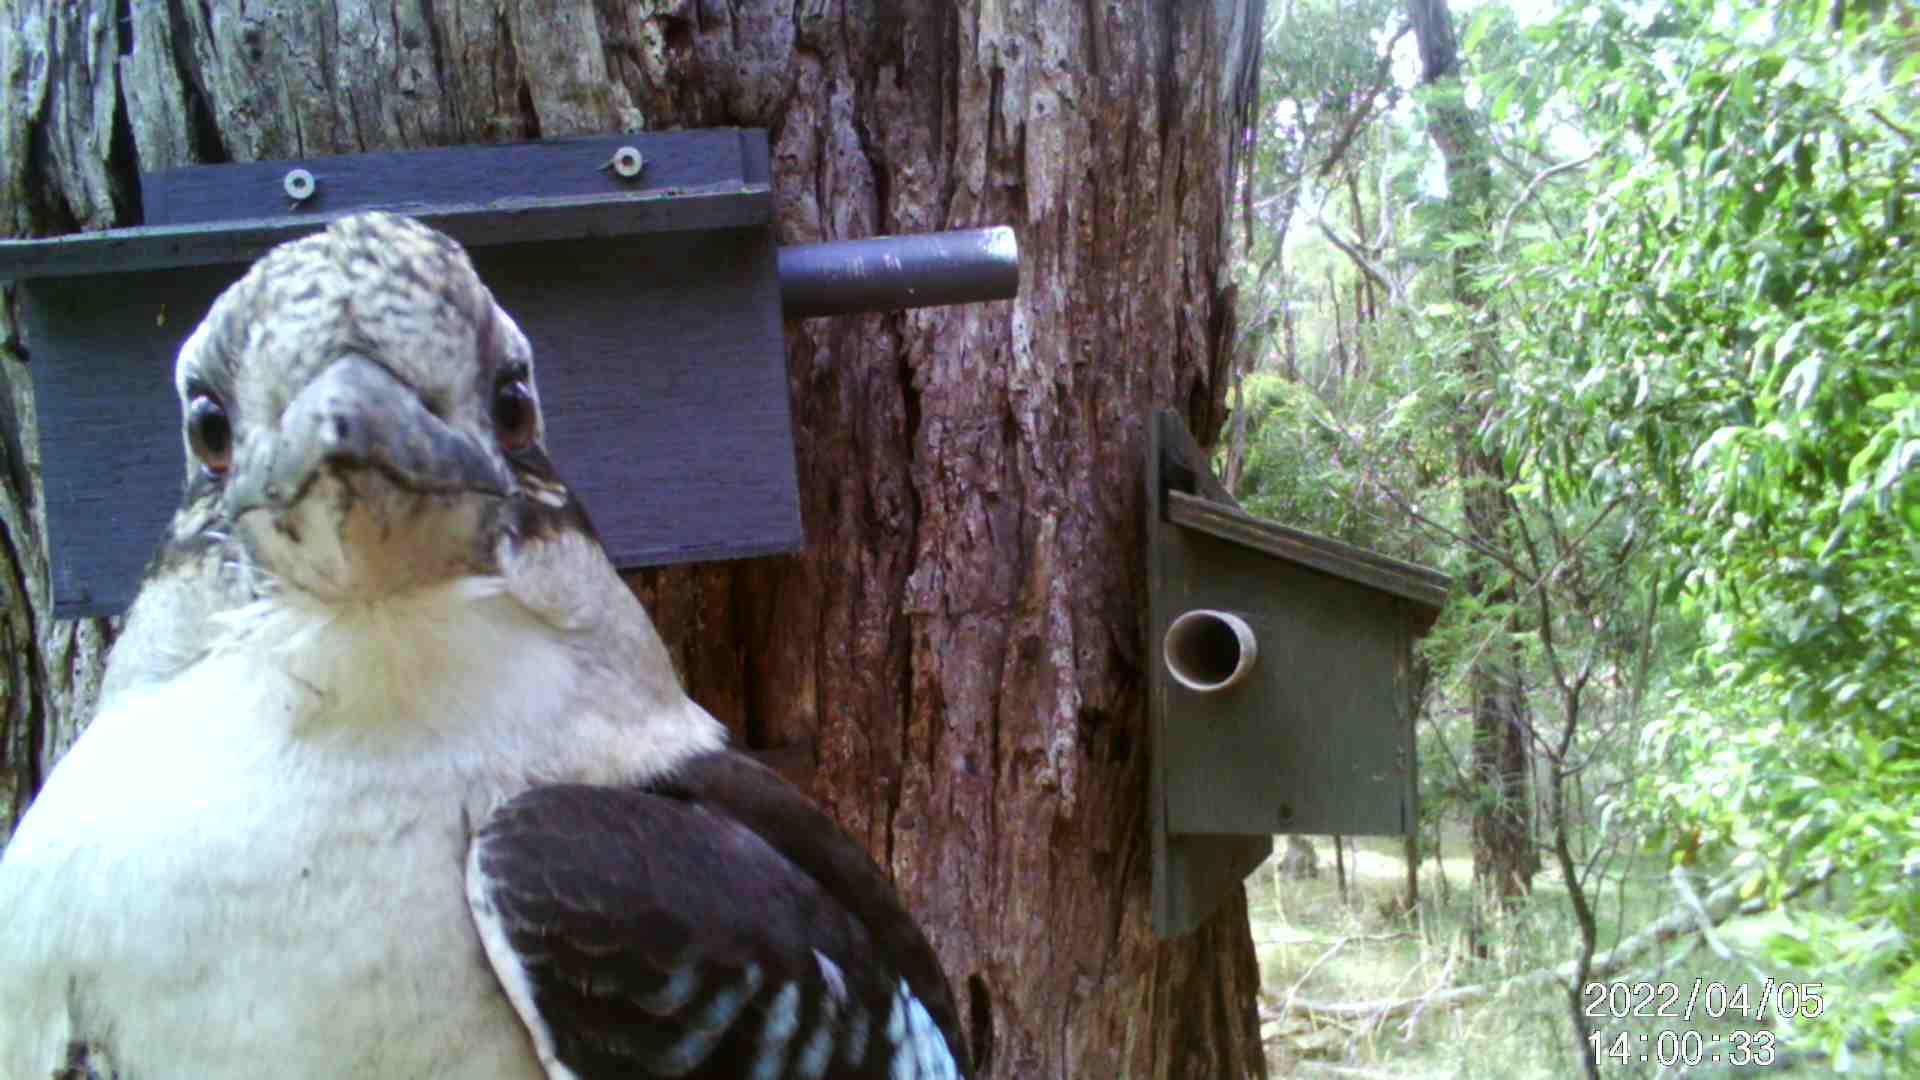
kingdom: Animalia
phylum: Chordata
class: Aves
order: Coraciiformes
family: Alcedinidae
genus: Dacelo
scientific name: Dacelo novaeguineae
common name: Laughing kookaburra
